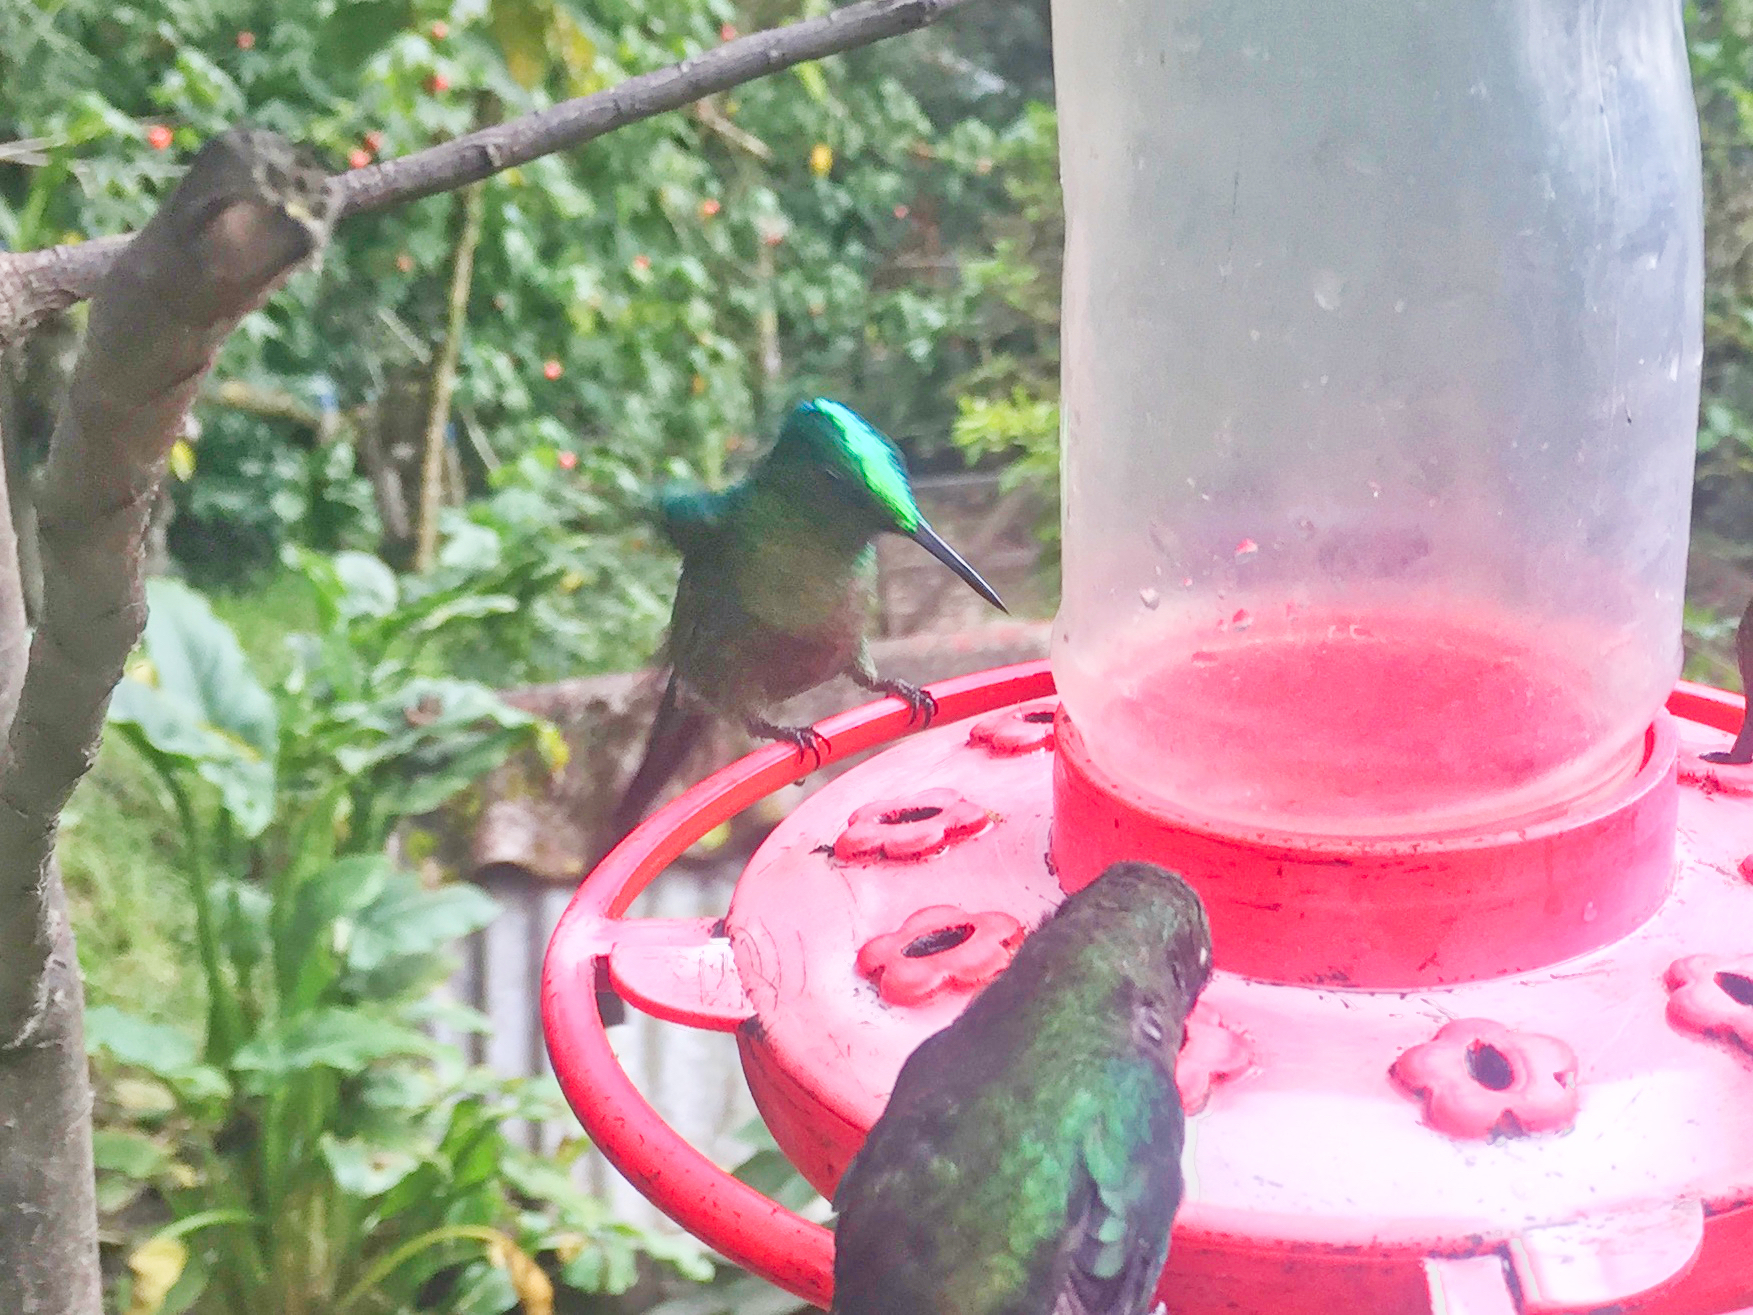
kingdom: Animalia
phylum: Chordata
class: Aves
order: Apodiformes
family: Trochilidae
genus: Aglaiocercus
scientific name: Aglaiocercus kingii
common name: Long-tailed sylph
